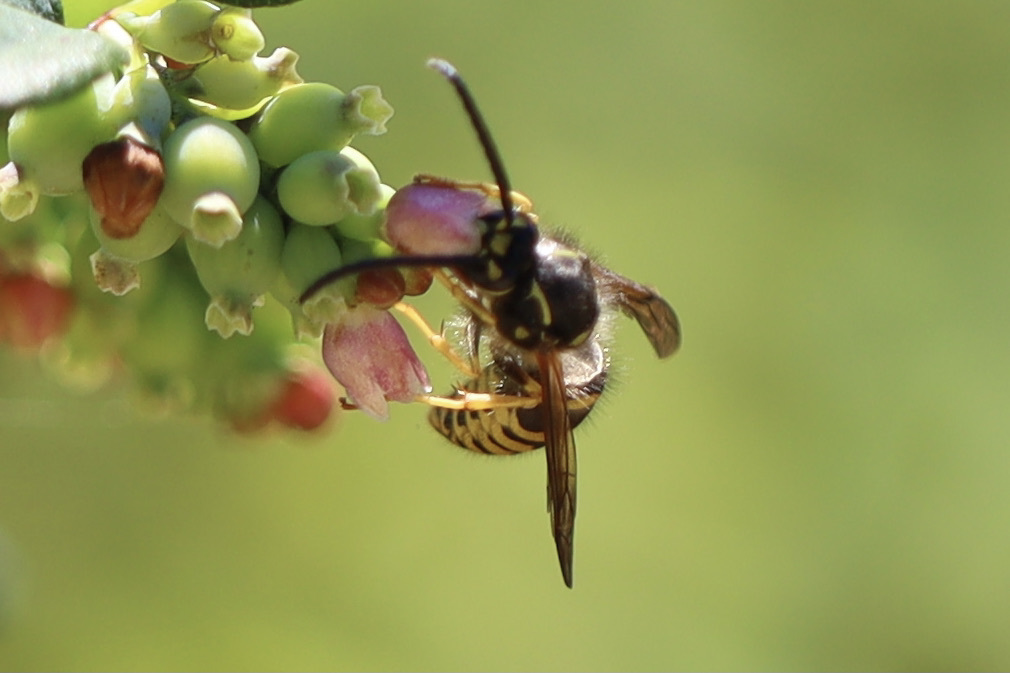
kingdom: Animalia
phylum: Arthropoda
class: Insecta
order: Hymenoptera
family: Vespidae
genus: Dolichovespula
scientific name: Dolichovespula arenaria
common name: Aerial yellowjacket
